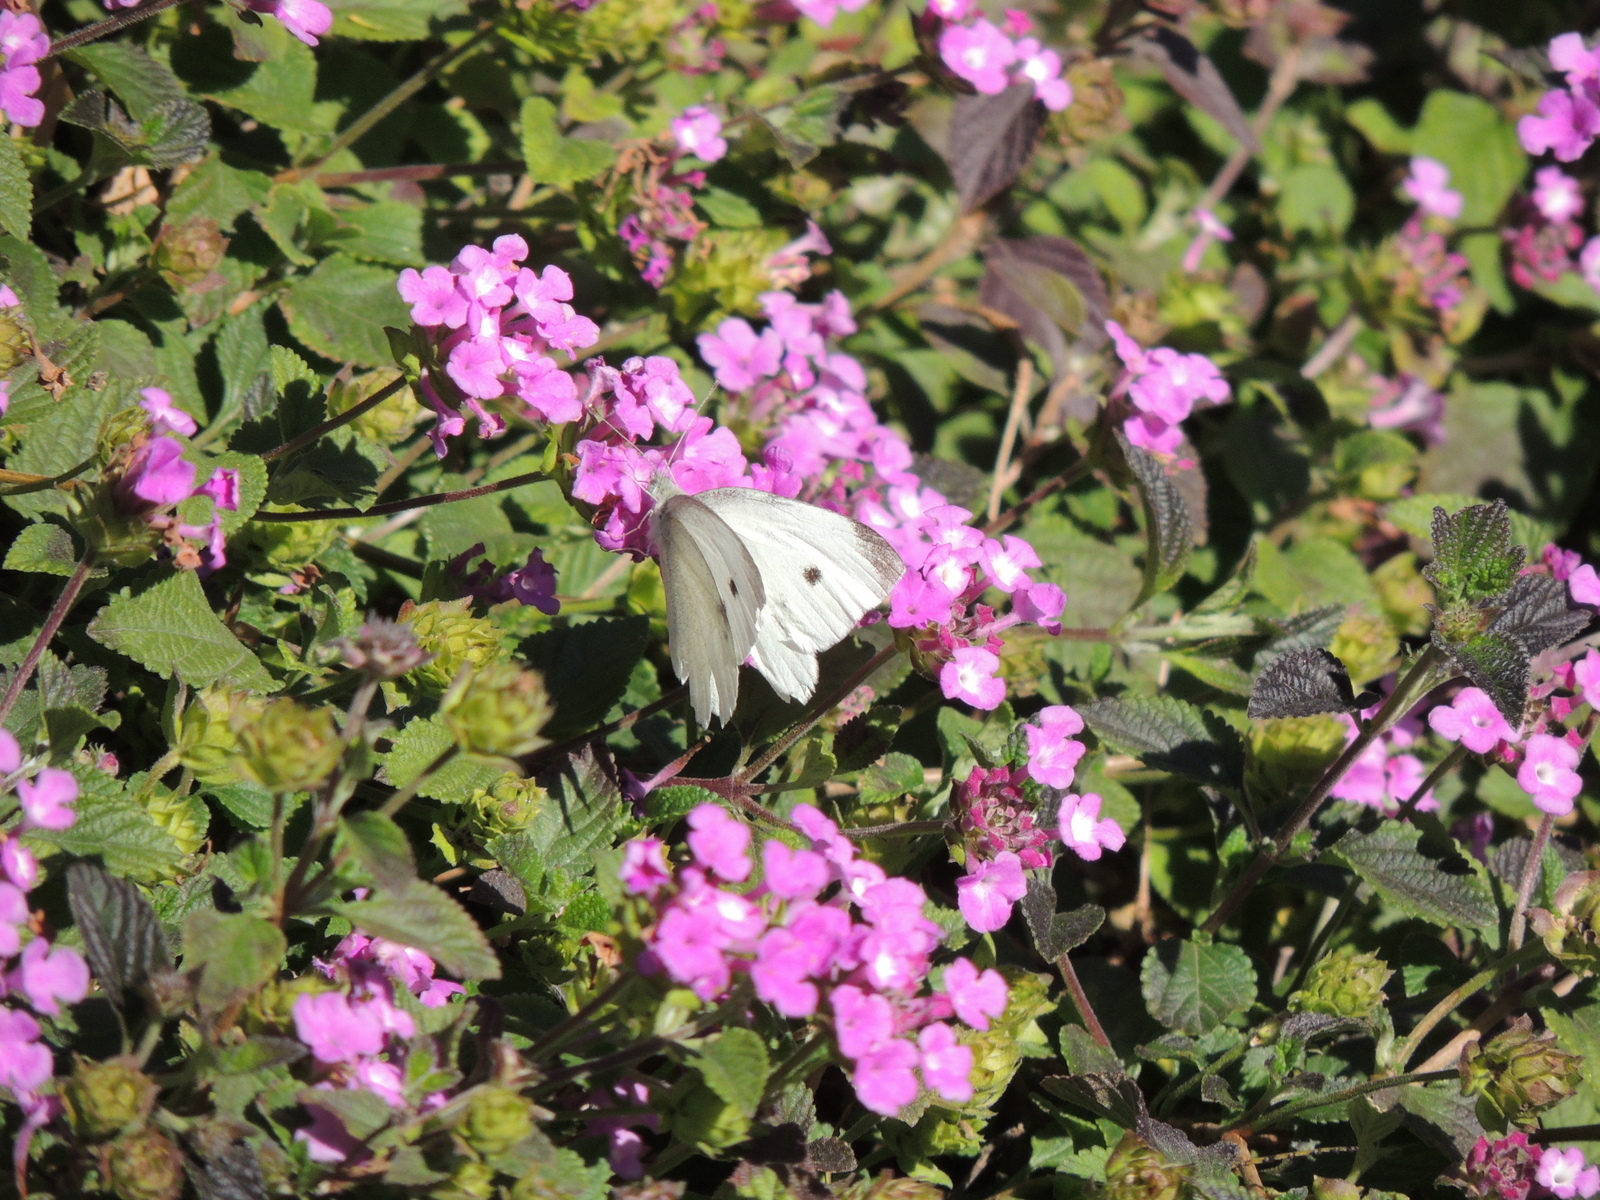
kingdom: Animalia
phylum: Arthropoda
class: Insecta
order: Lepidoptera
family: Pieridae
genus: Pieris
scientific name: Pieris rapae
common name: Small white
